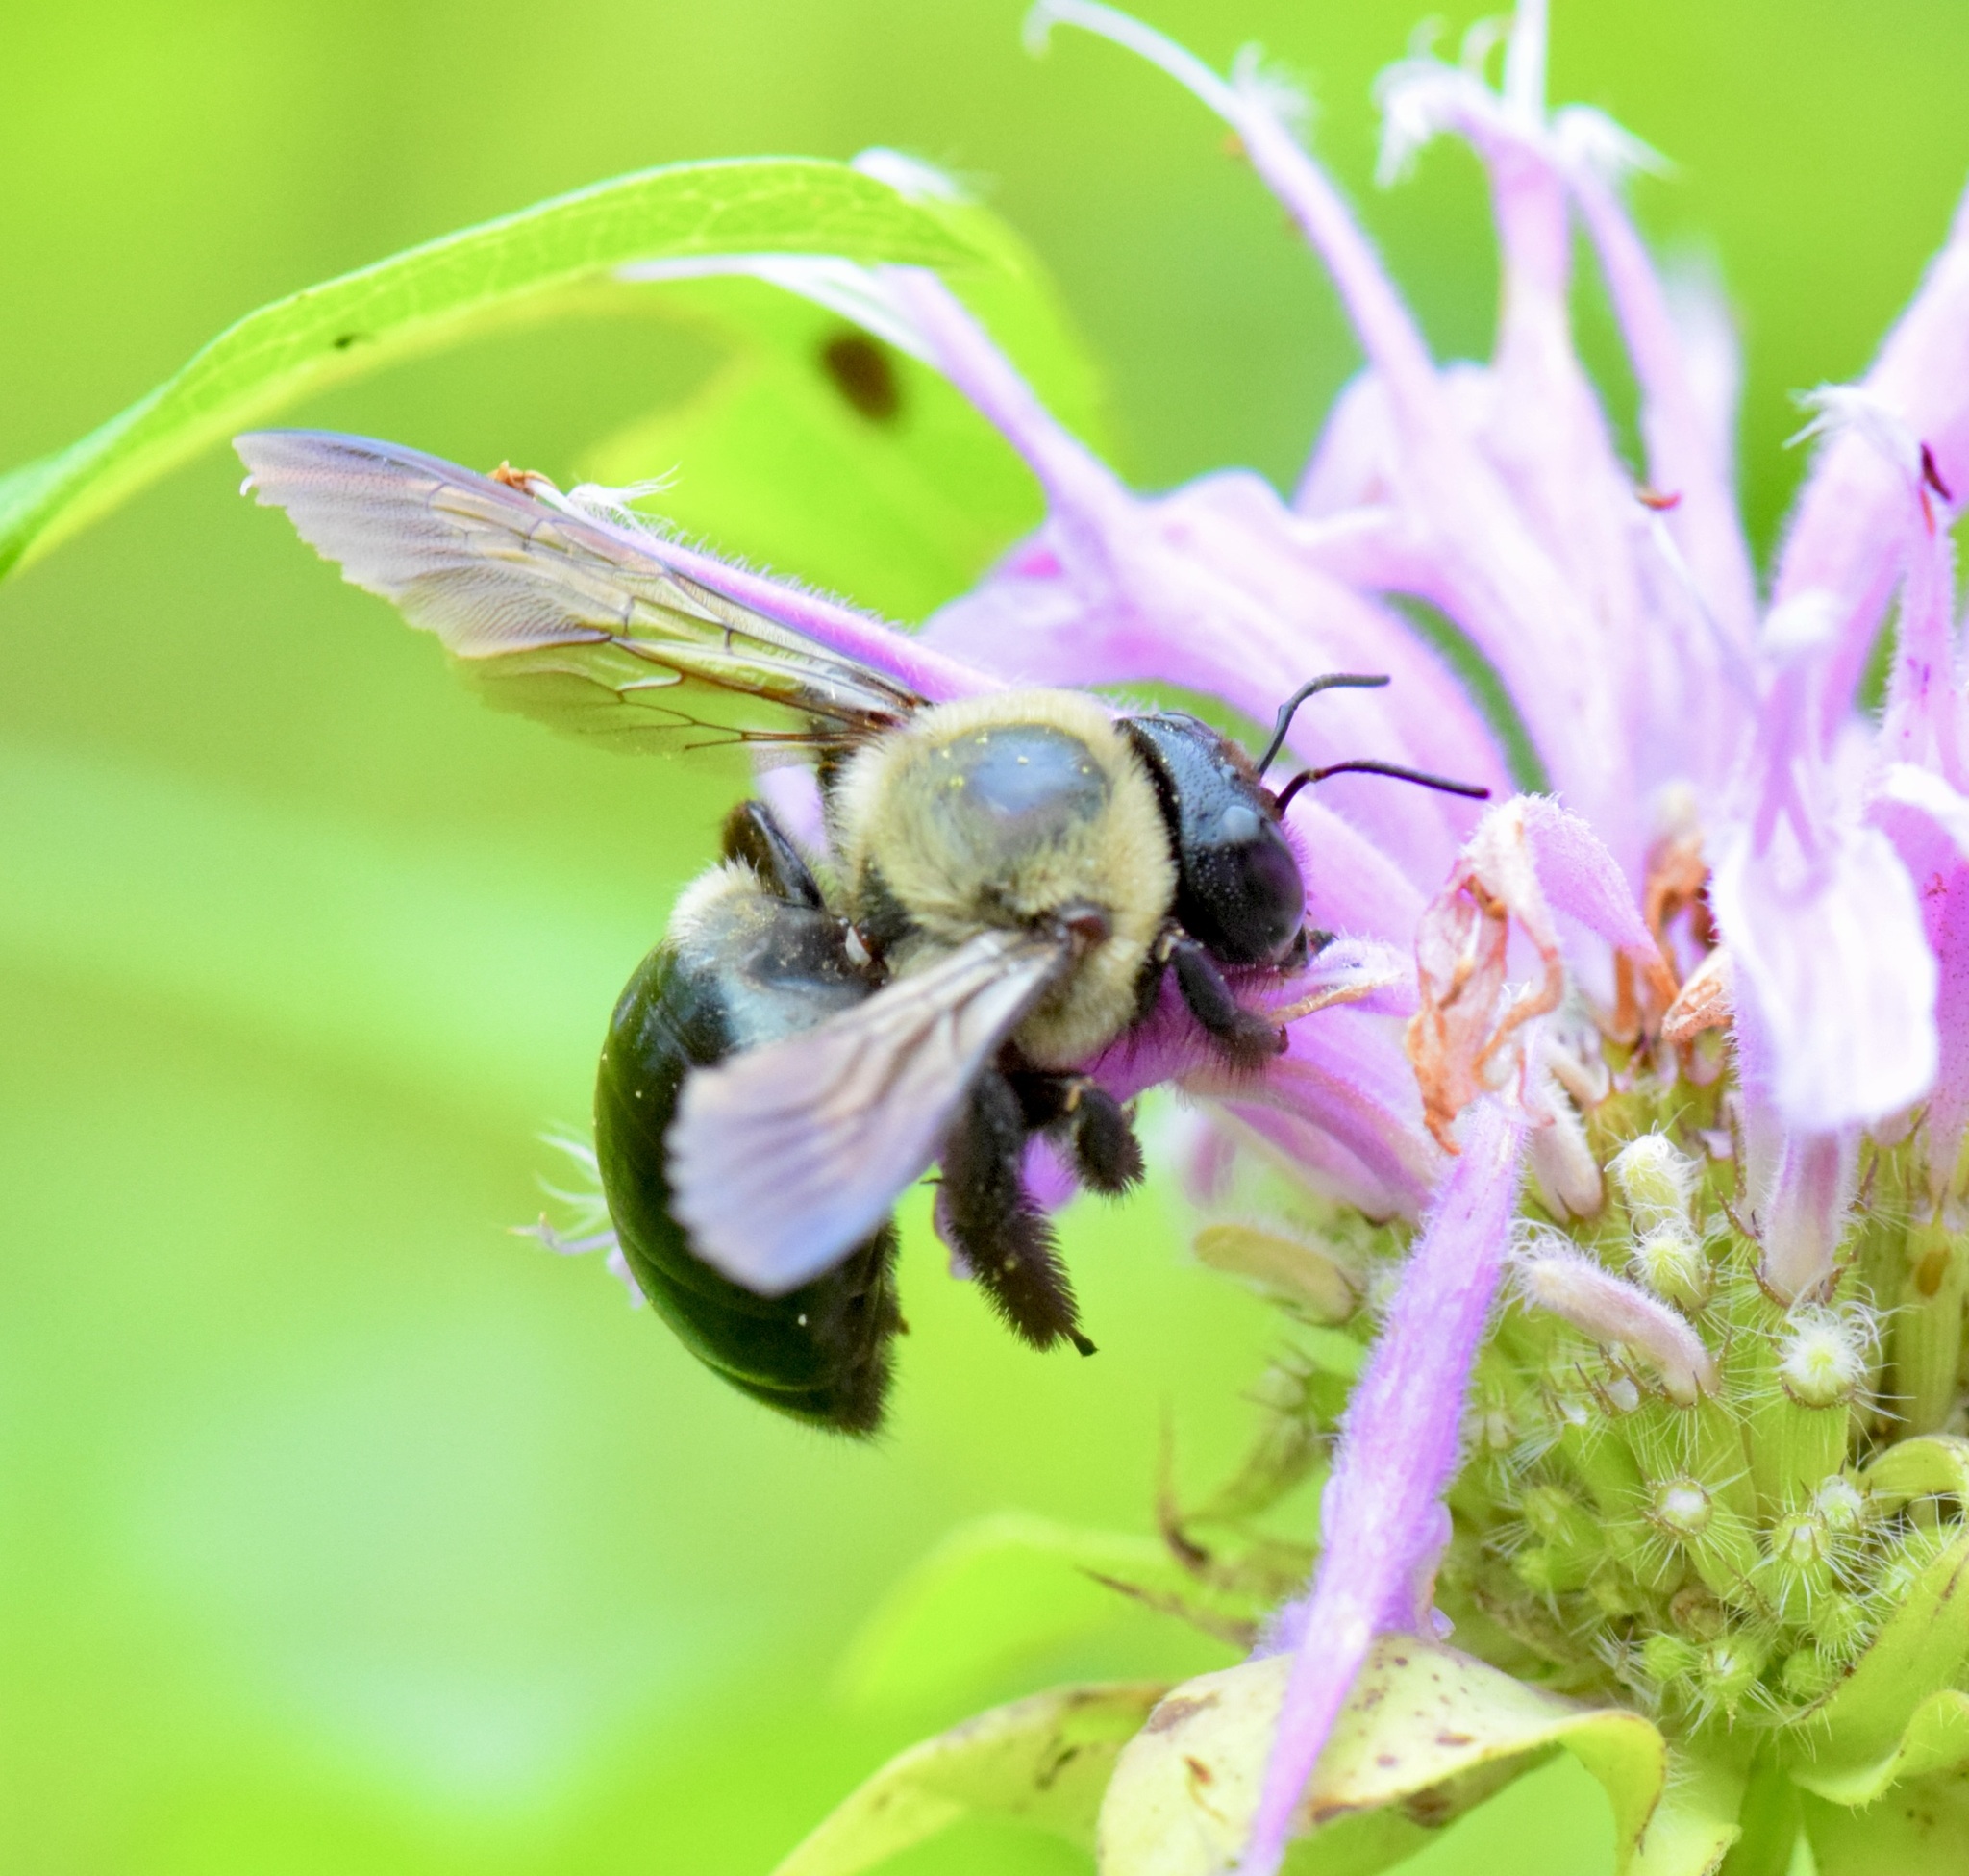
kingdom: Animalia
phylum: Arthropoda
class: Insecta
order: Hymenoptera
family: Apidae
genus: Xylocopa
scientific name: Xylocopa virginica
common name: Carpenter bee
